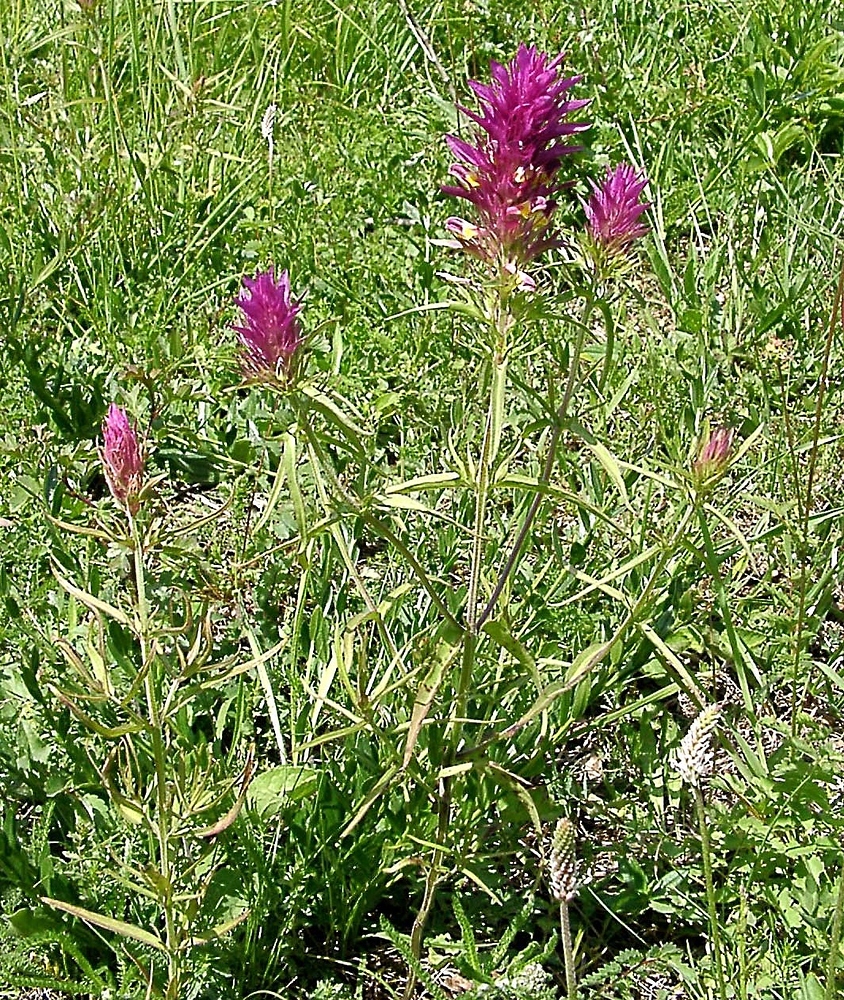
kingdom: Plantae
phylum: Tracheophyta
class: Magnoliopsida
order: Lamiales
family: Orobanchaceae
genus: Melampyrum
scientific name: Melampyrum arvense
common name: Field cow-wheat
